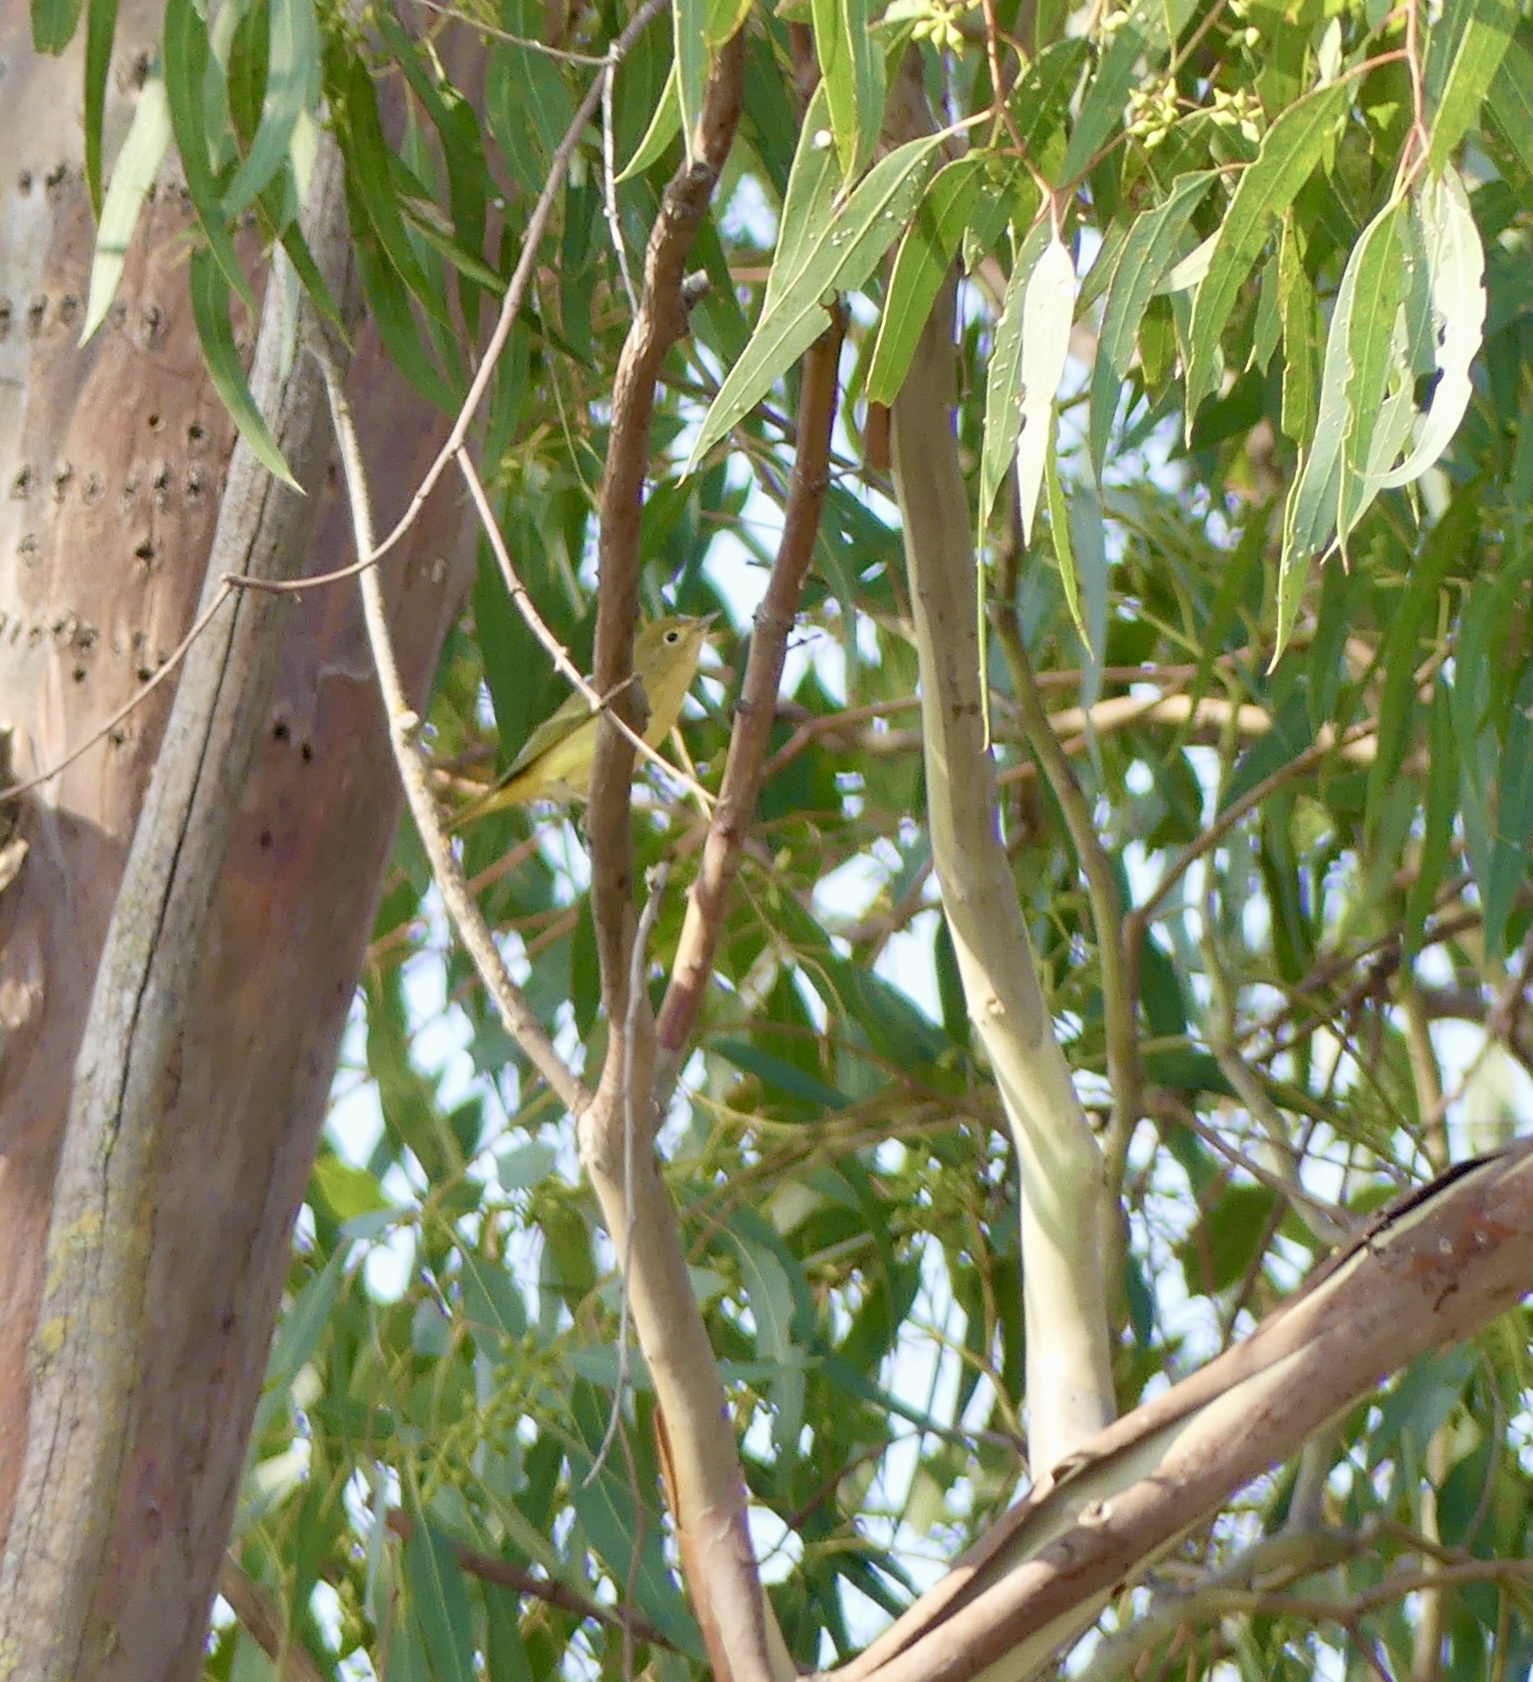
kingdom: Animalia
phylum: Chordata
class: Aves
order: Passeriformes
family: Parulidae
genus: Setophaga
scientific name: Setophaga petechia
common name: Yellow warbler
